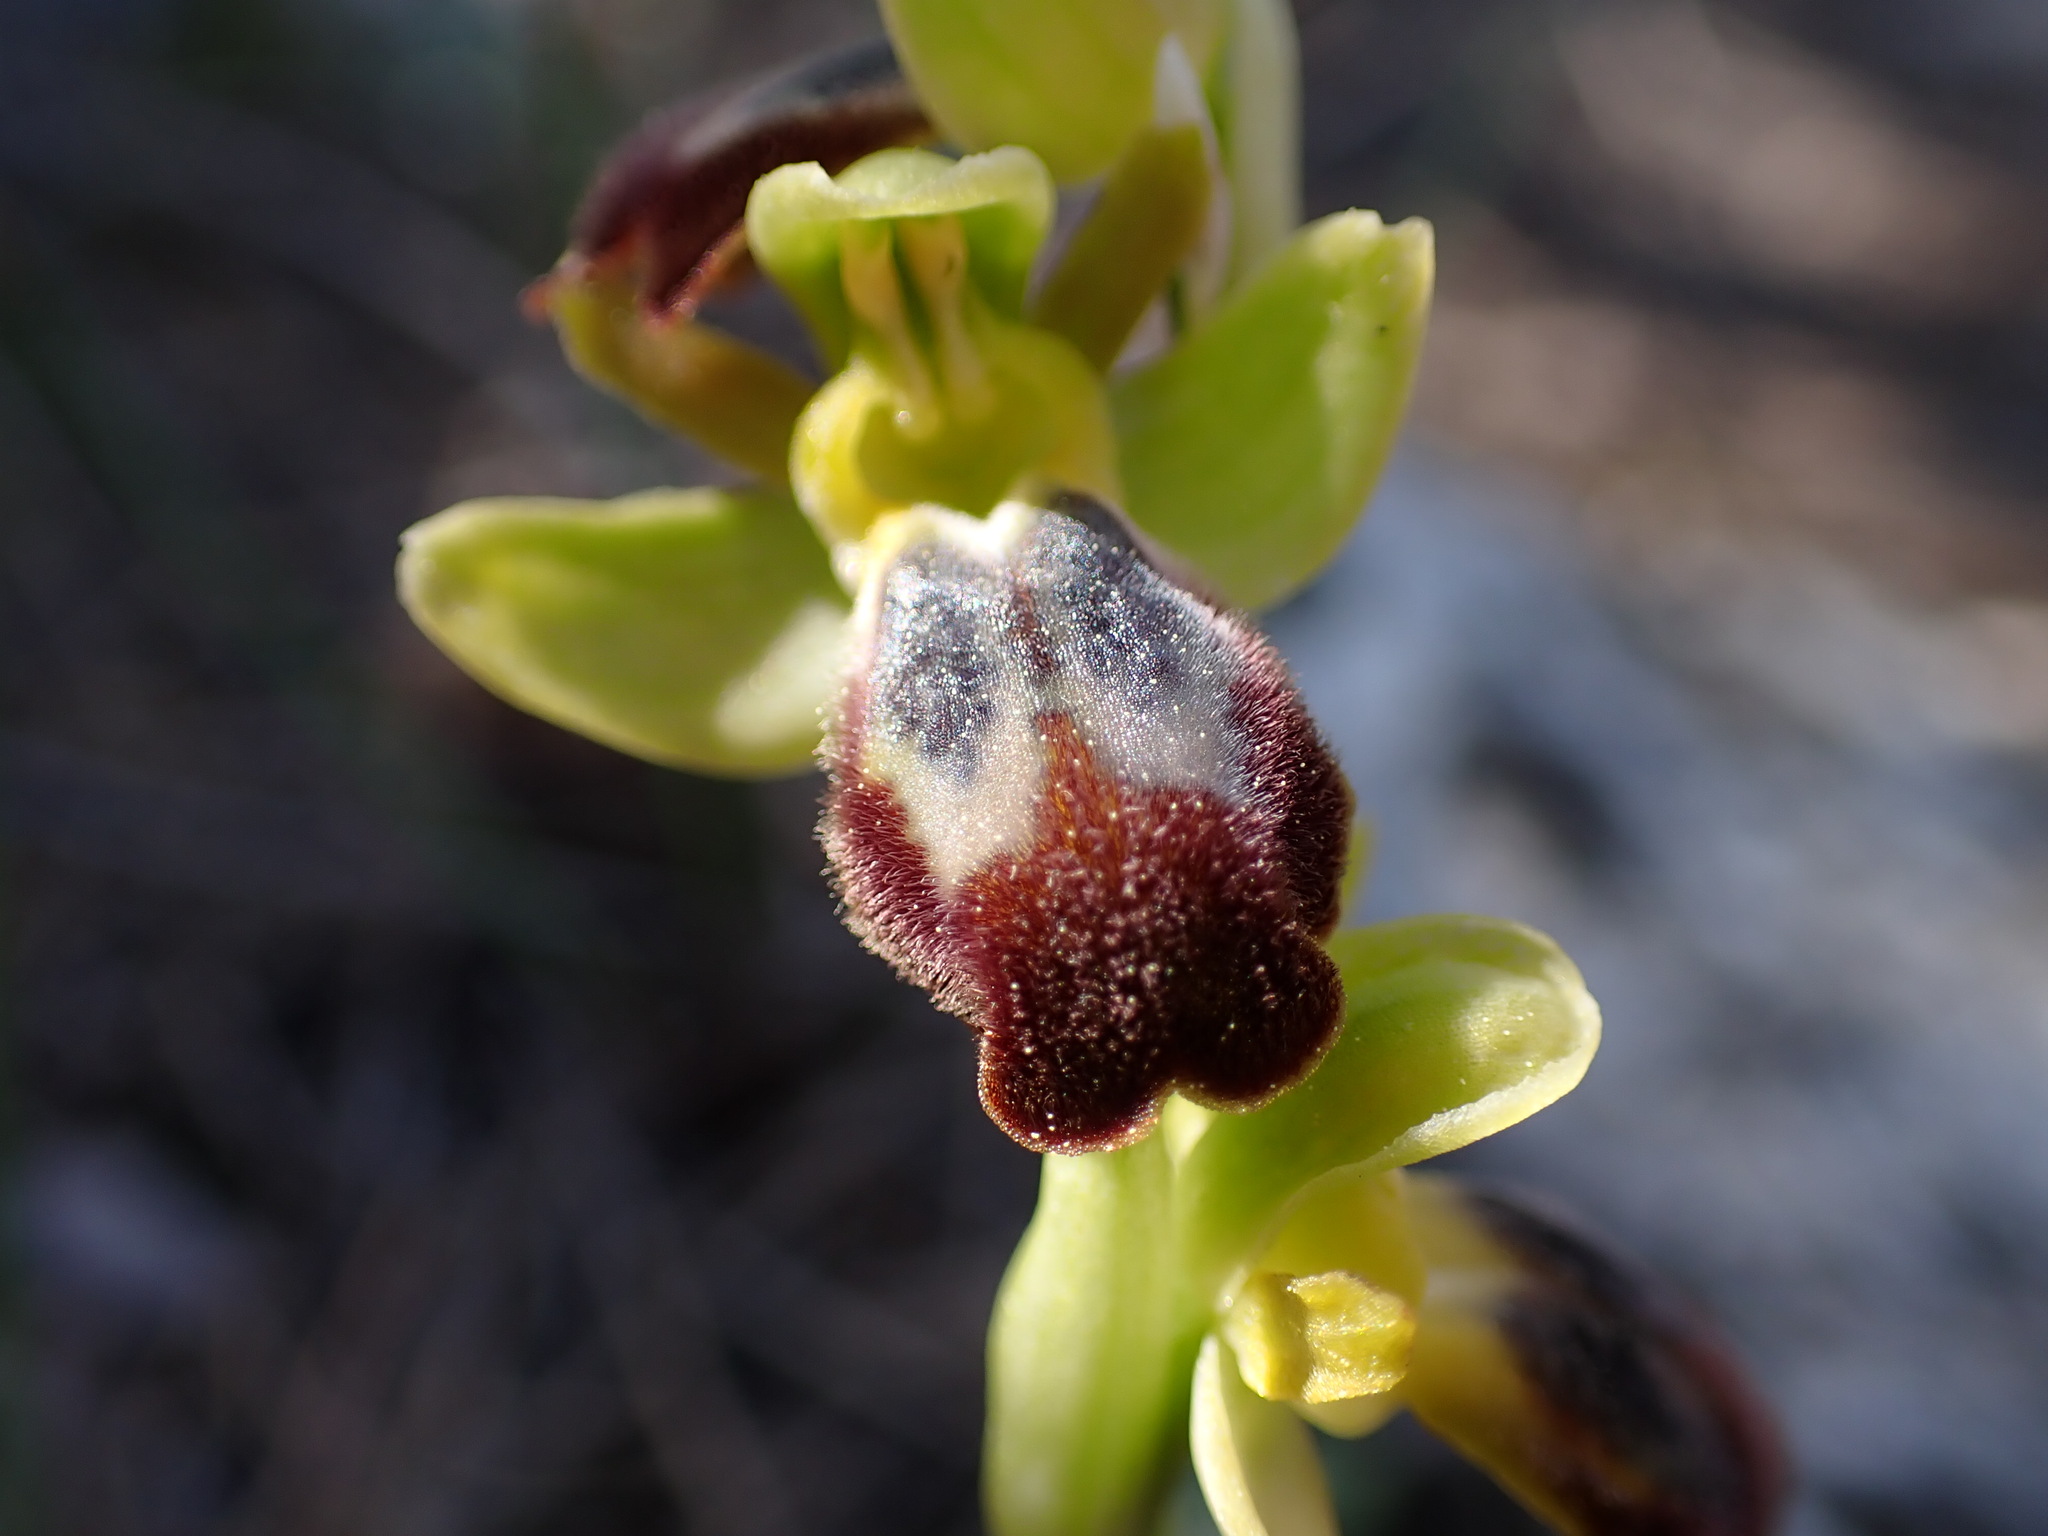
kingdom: Plantae
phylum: Tracheophyta
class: Liliopsida
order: Asparagales
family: Orchidaceae
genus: Ophrys
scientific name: Ophrys fusca
